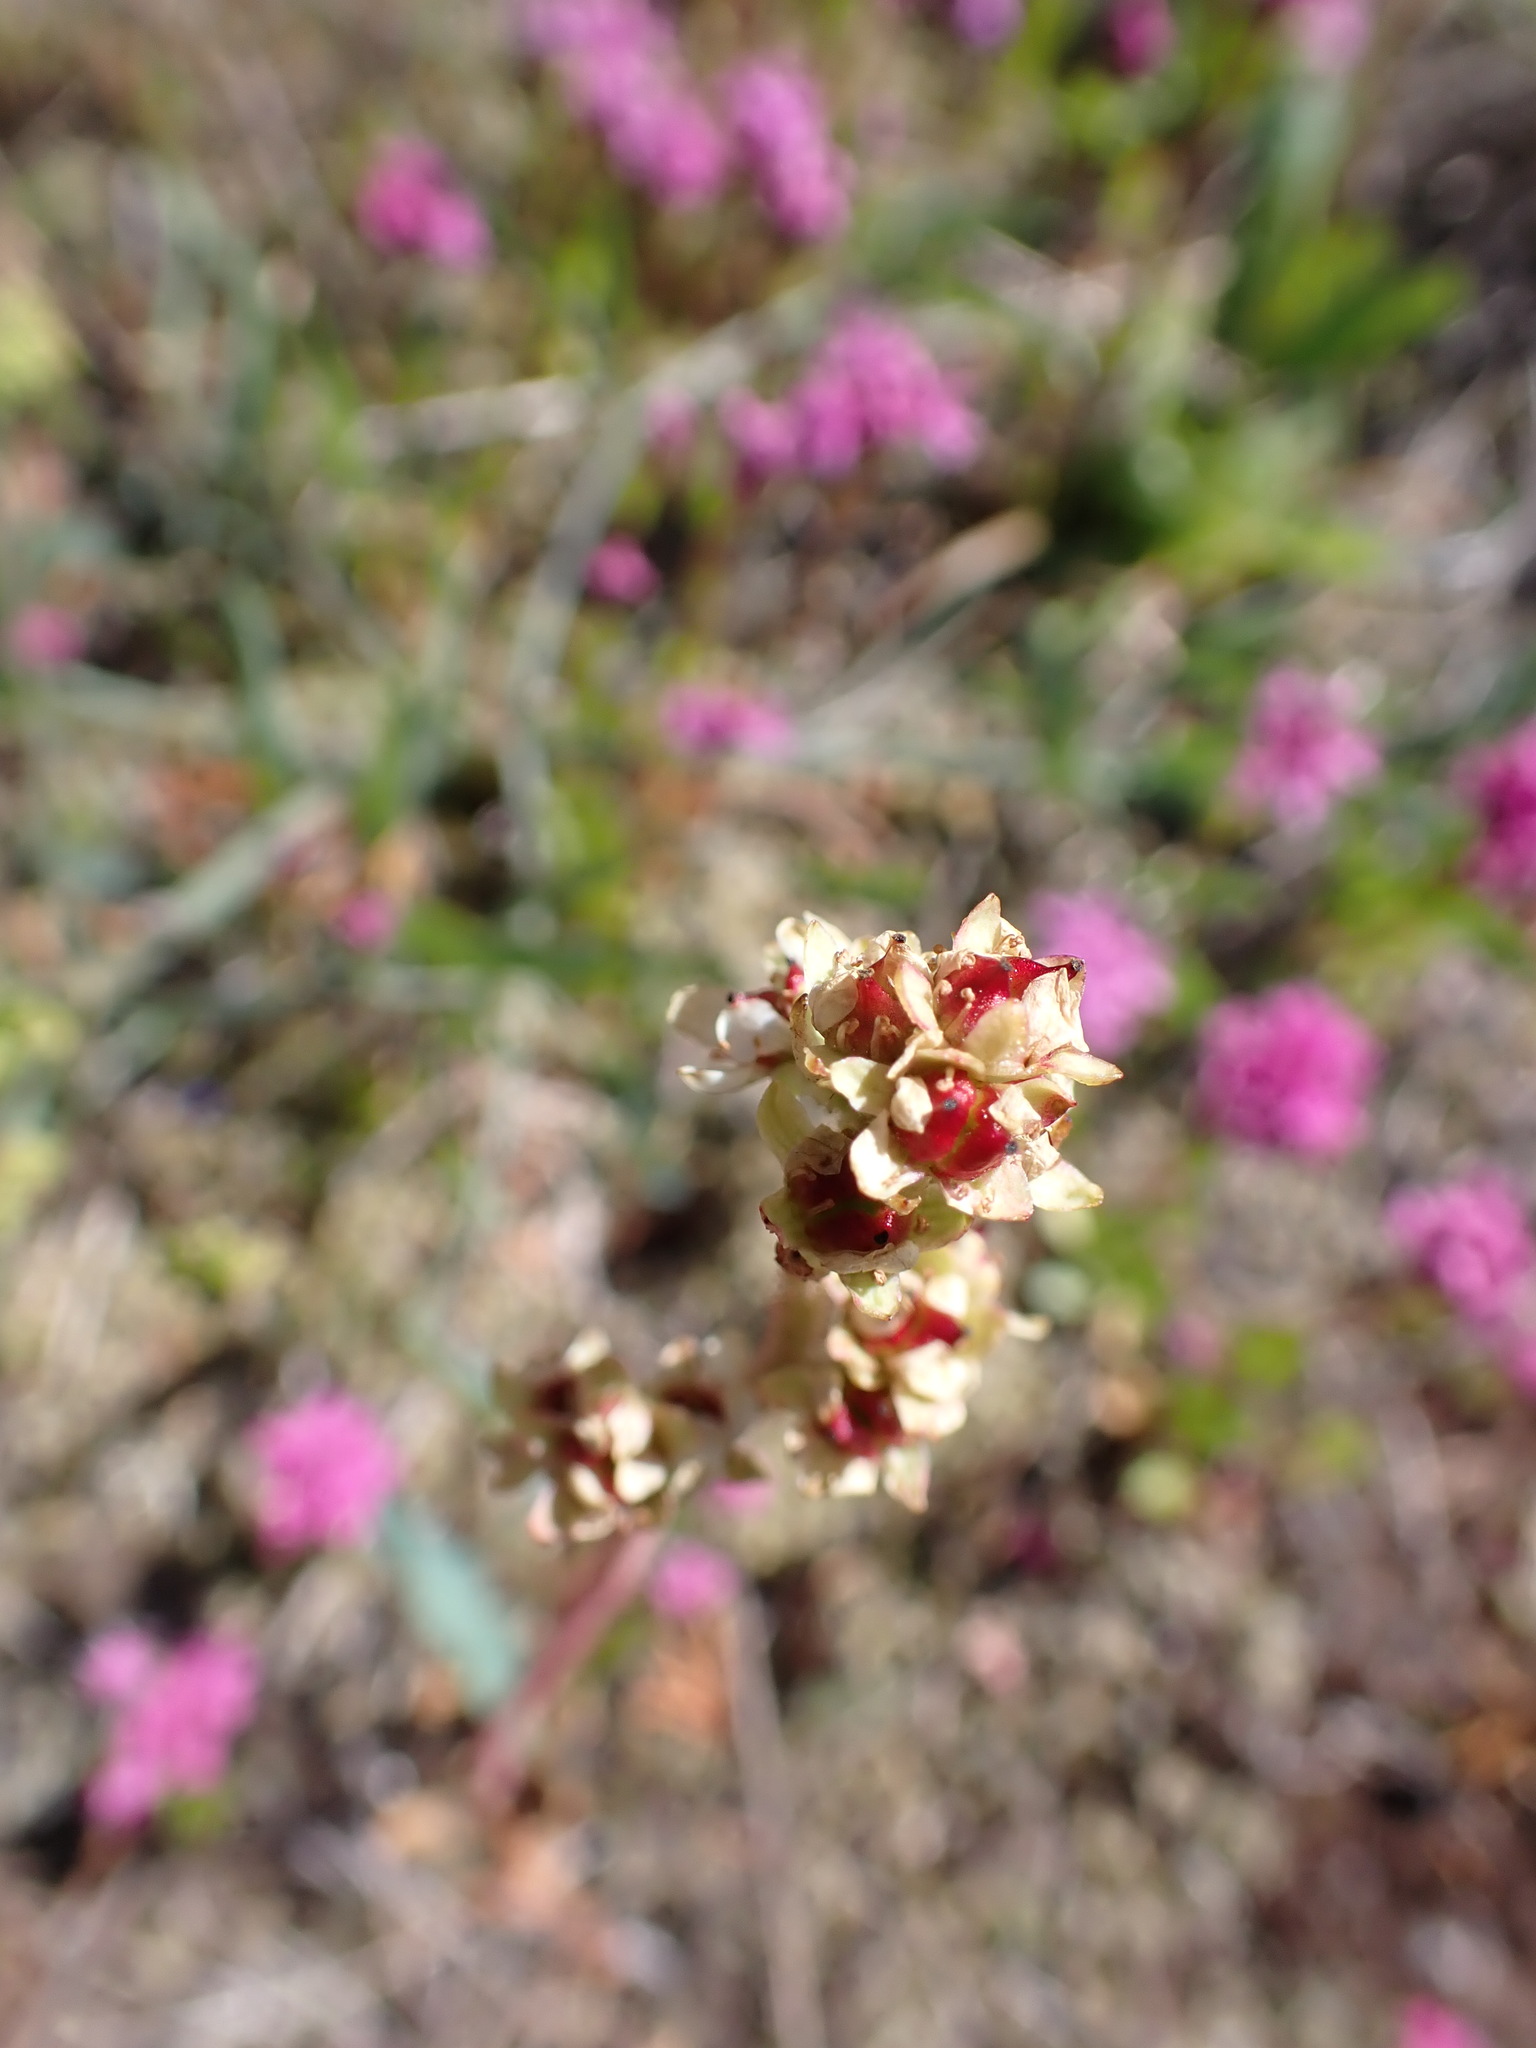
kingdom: Plantae
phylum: Tracheophyta
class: Magnoliopsida
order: Saxifragales
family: Saxifragaceae
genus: Micranthes
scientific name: Micranthes integrifolia
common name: Wholeleaf saxifrage
